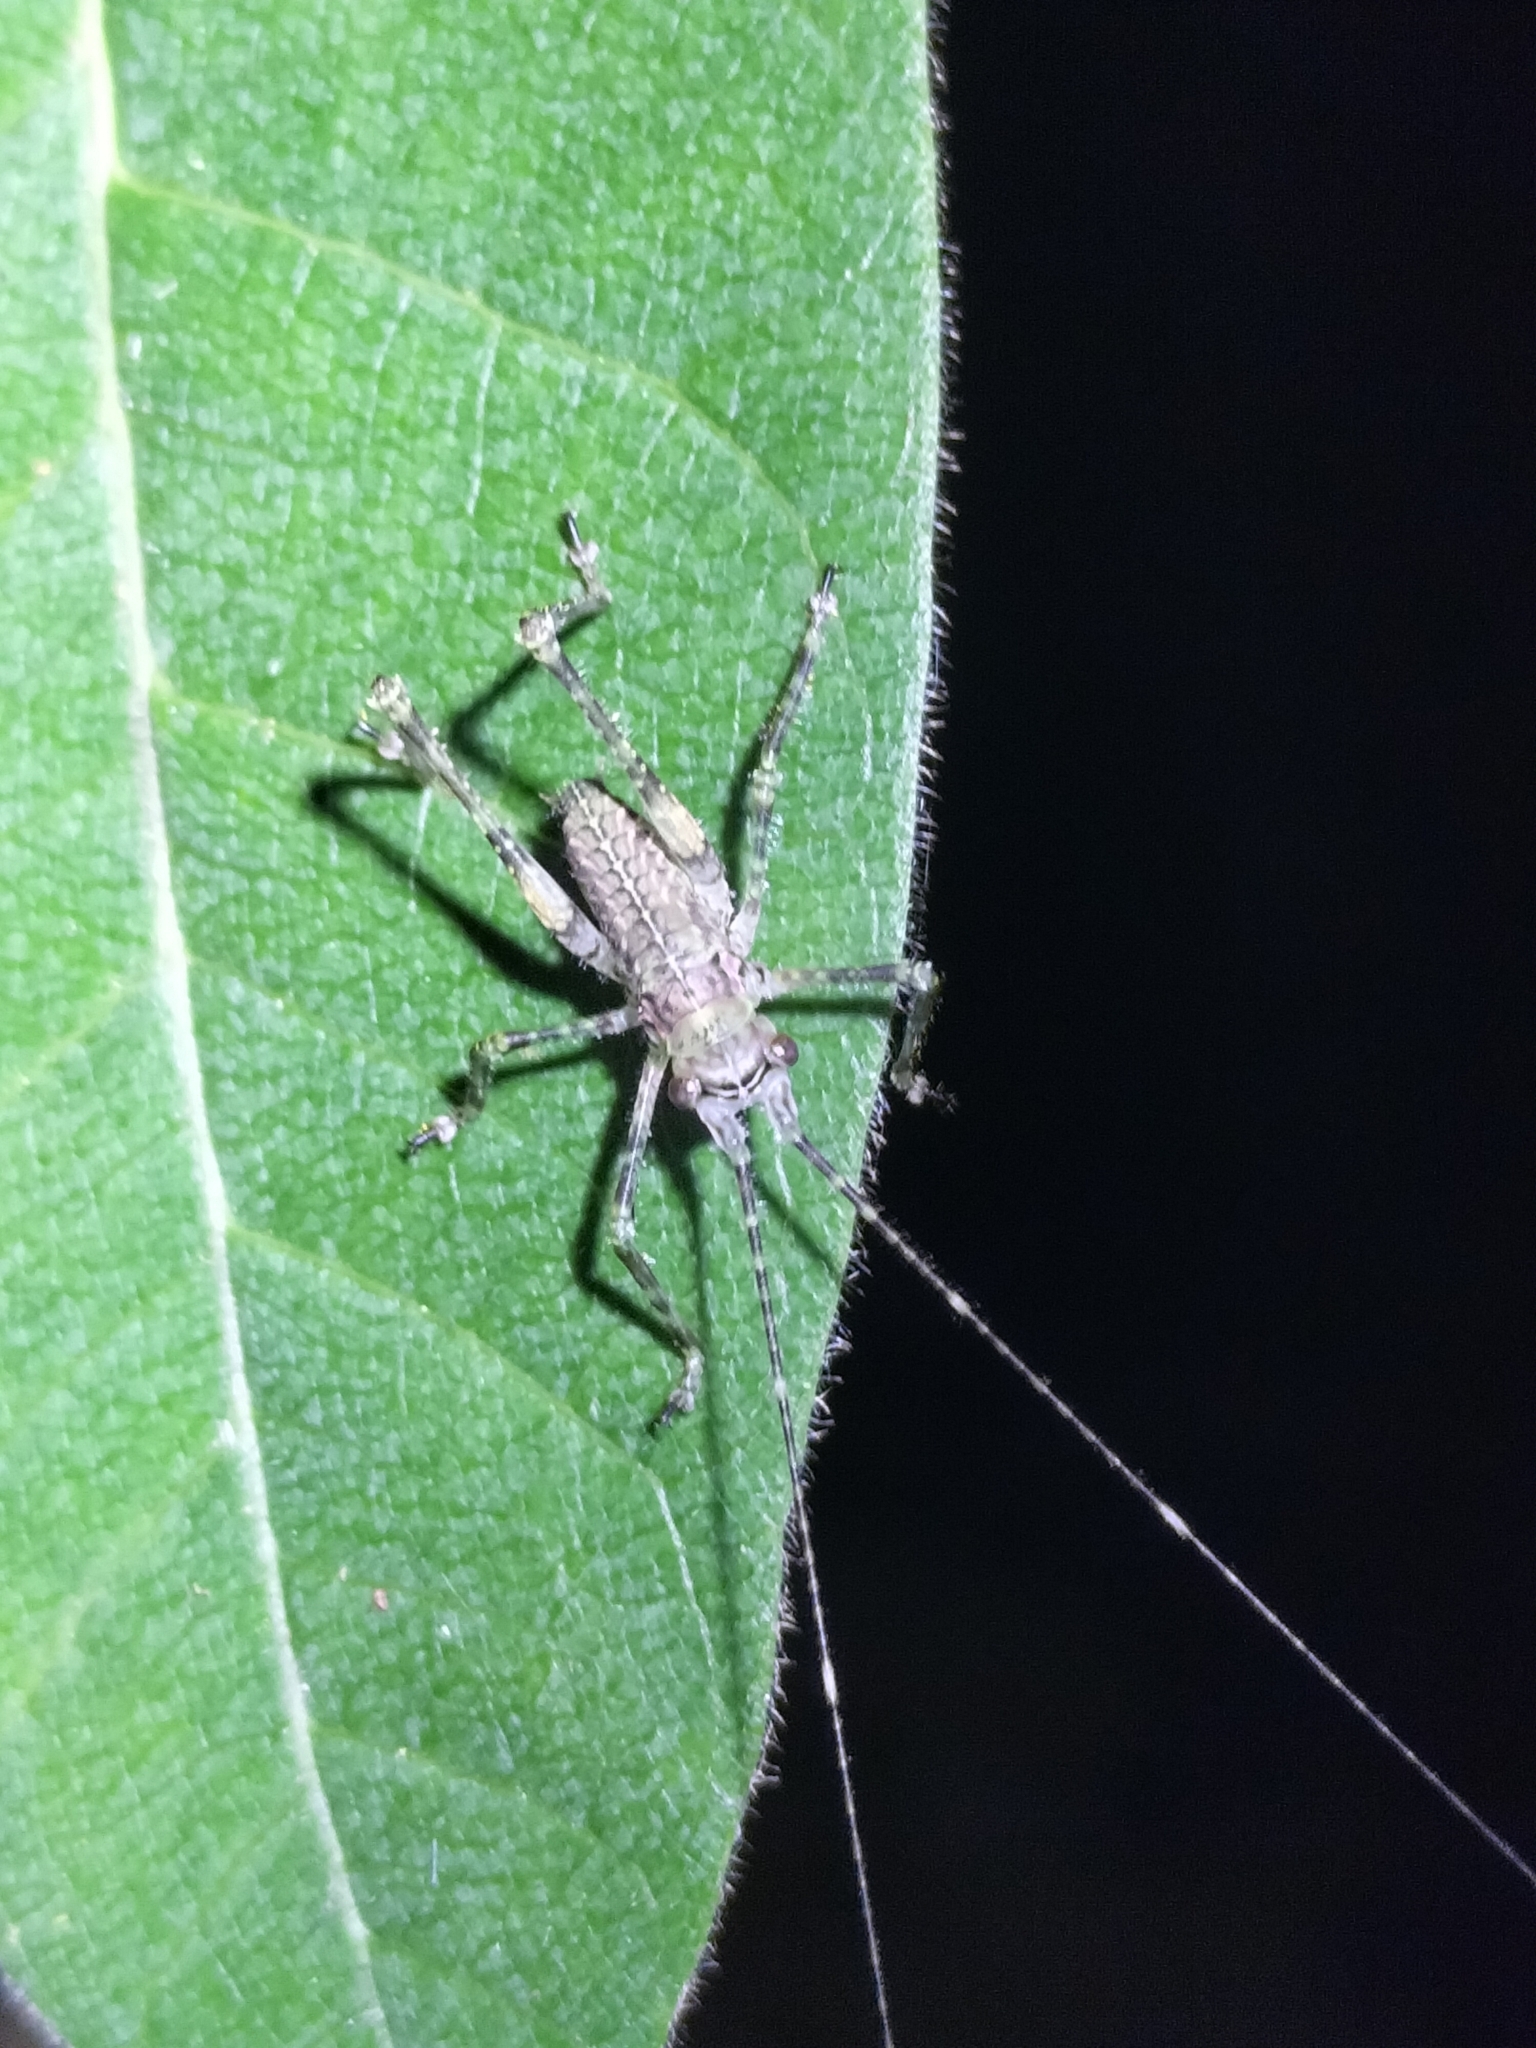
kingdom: Animalia
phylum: Arthropoda
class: Insecta
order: Orthoptera
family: Tettigoniidae
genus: Phricta
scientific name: Phricta spinosa
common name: Giant spiny forest katydid
